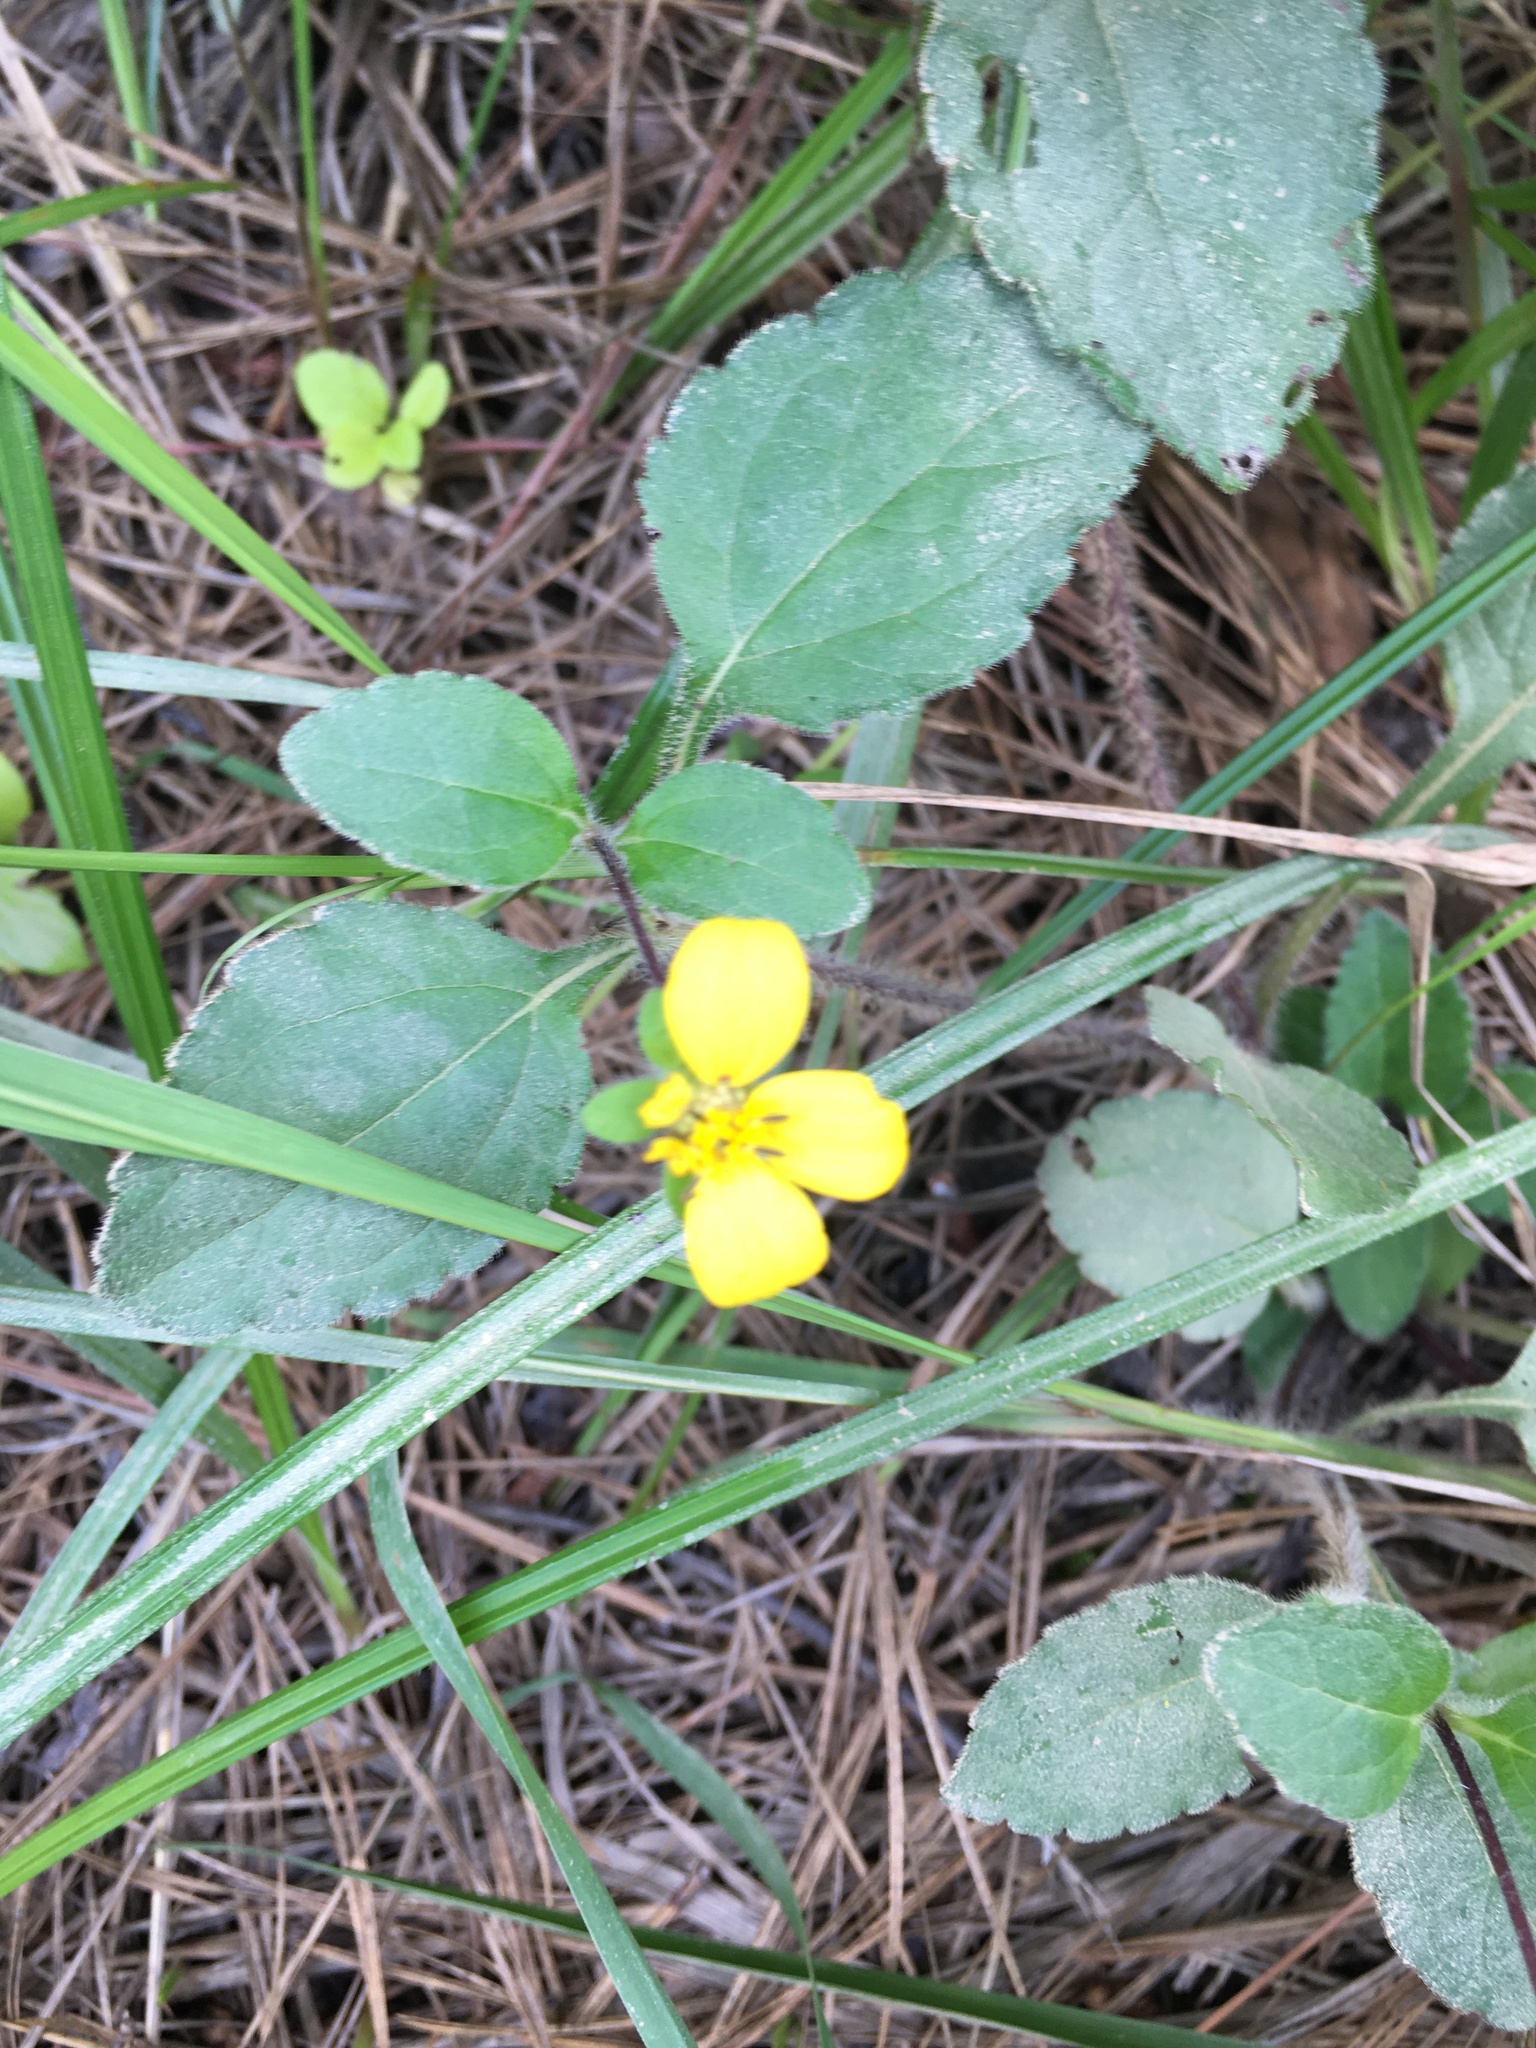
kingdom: Plantae
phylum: Tracheophyta
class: Magnoliopsida
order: Asterales
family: Asteraceae
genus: Chrysogonum
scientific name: Chrysogonum virginianum
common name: Golden-knee
